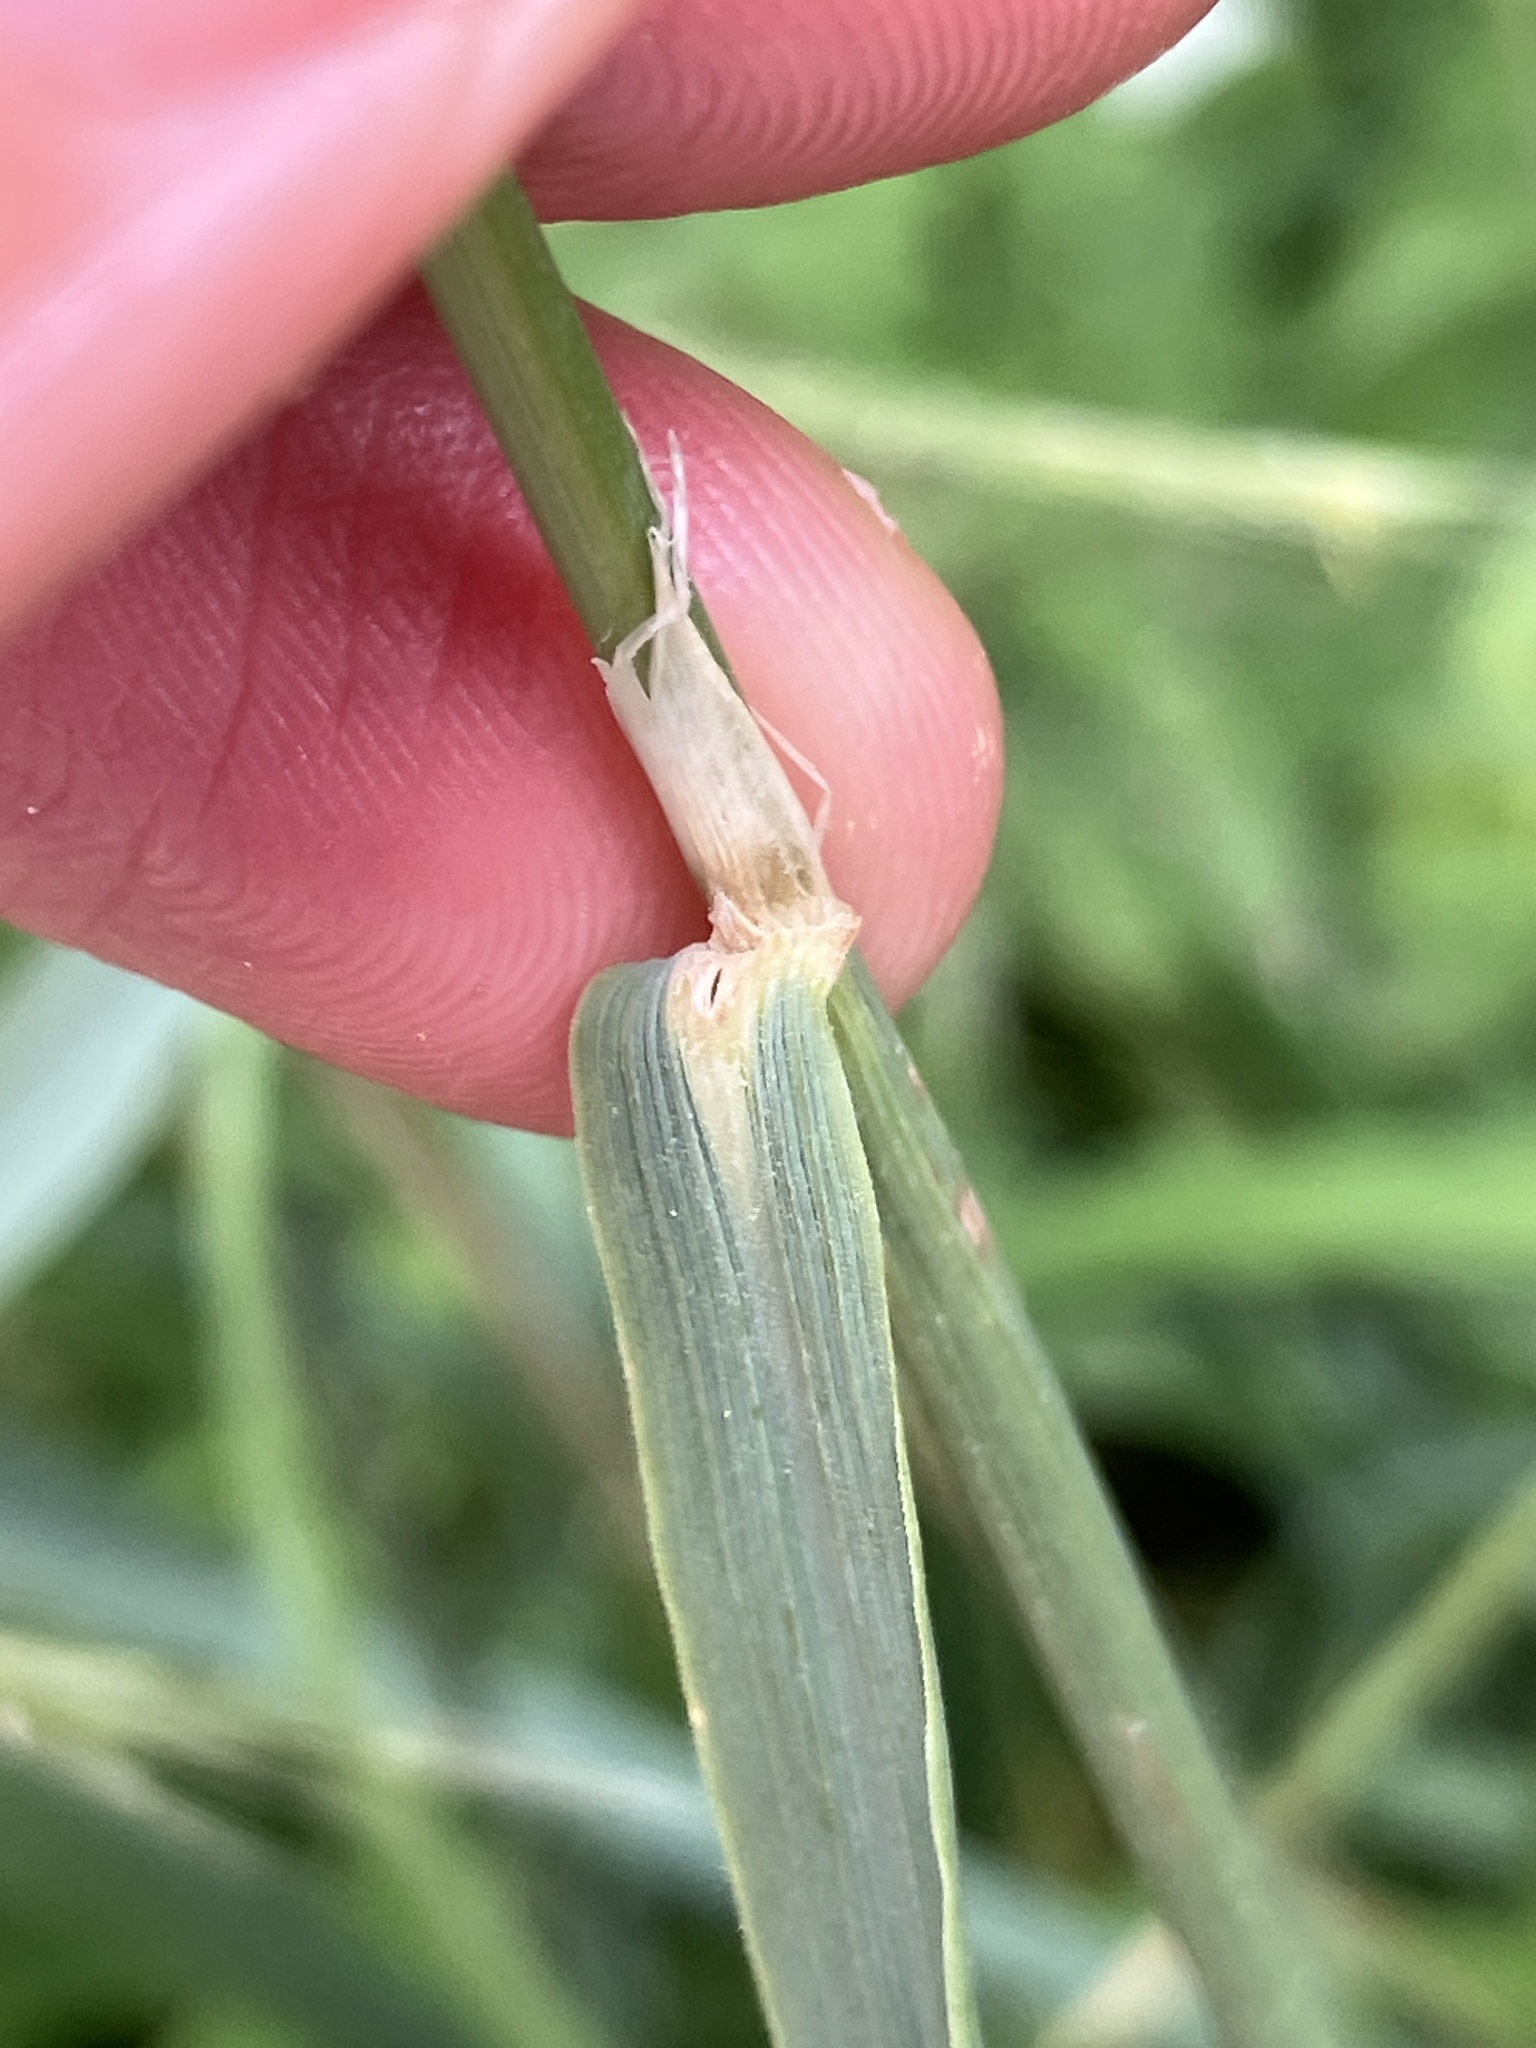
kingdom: Plantae
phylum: Tracheophyta
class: Liliopsida
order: Poales
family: Poaceae
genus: Calamagrostis
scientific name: Calamagrostis epigejos
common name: Wood small-reed
